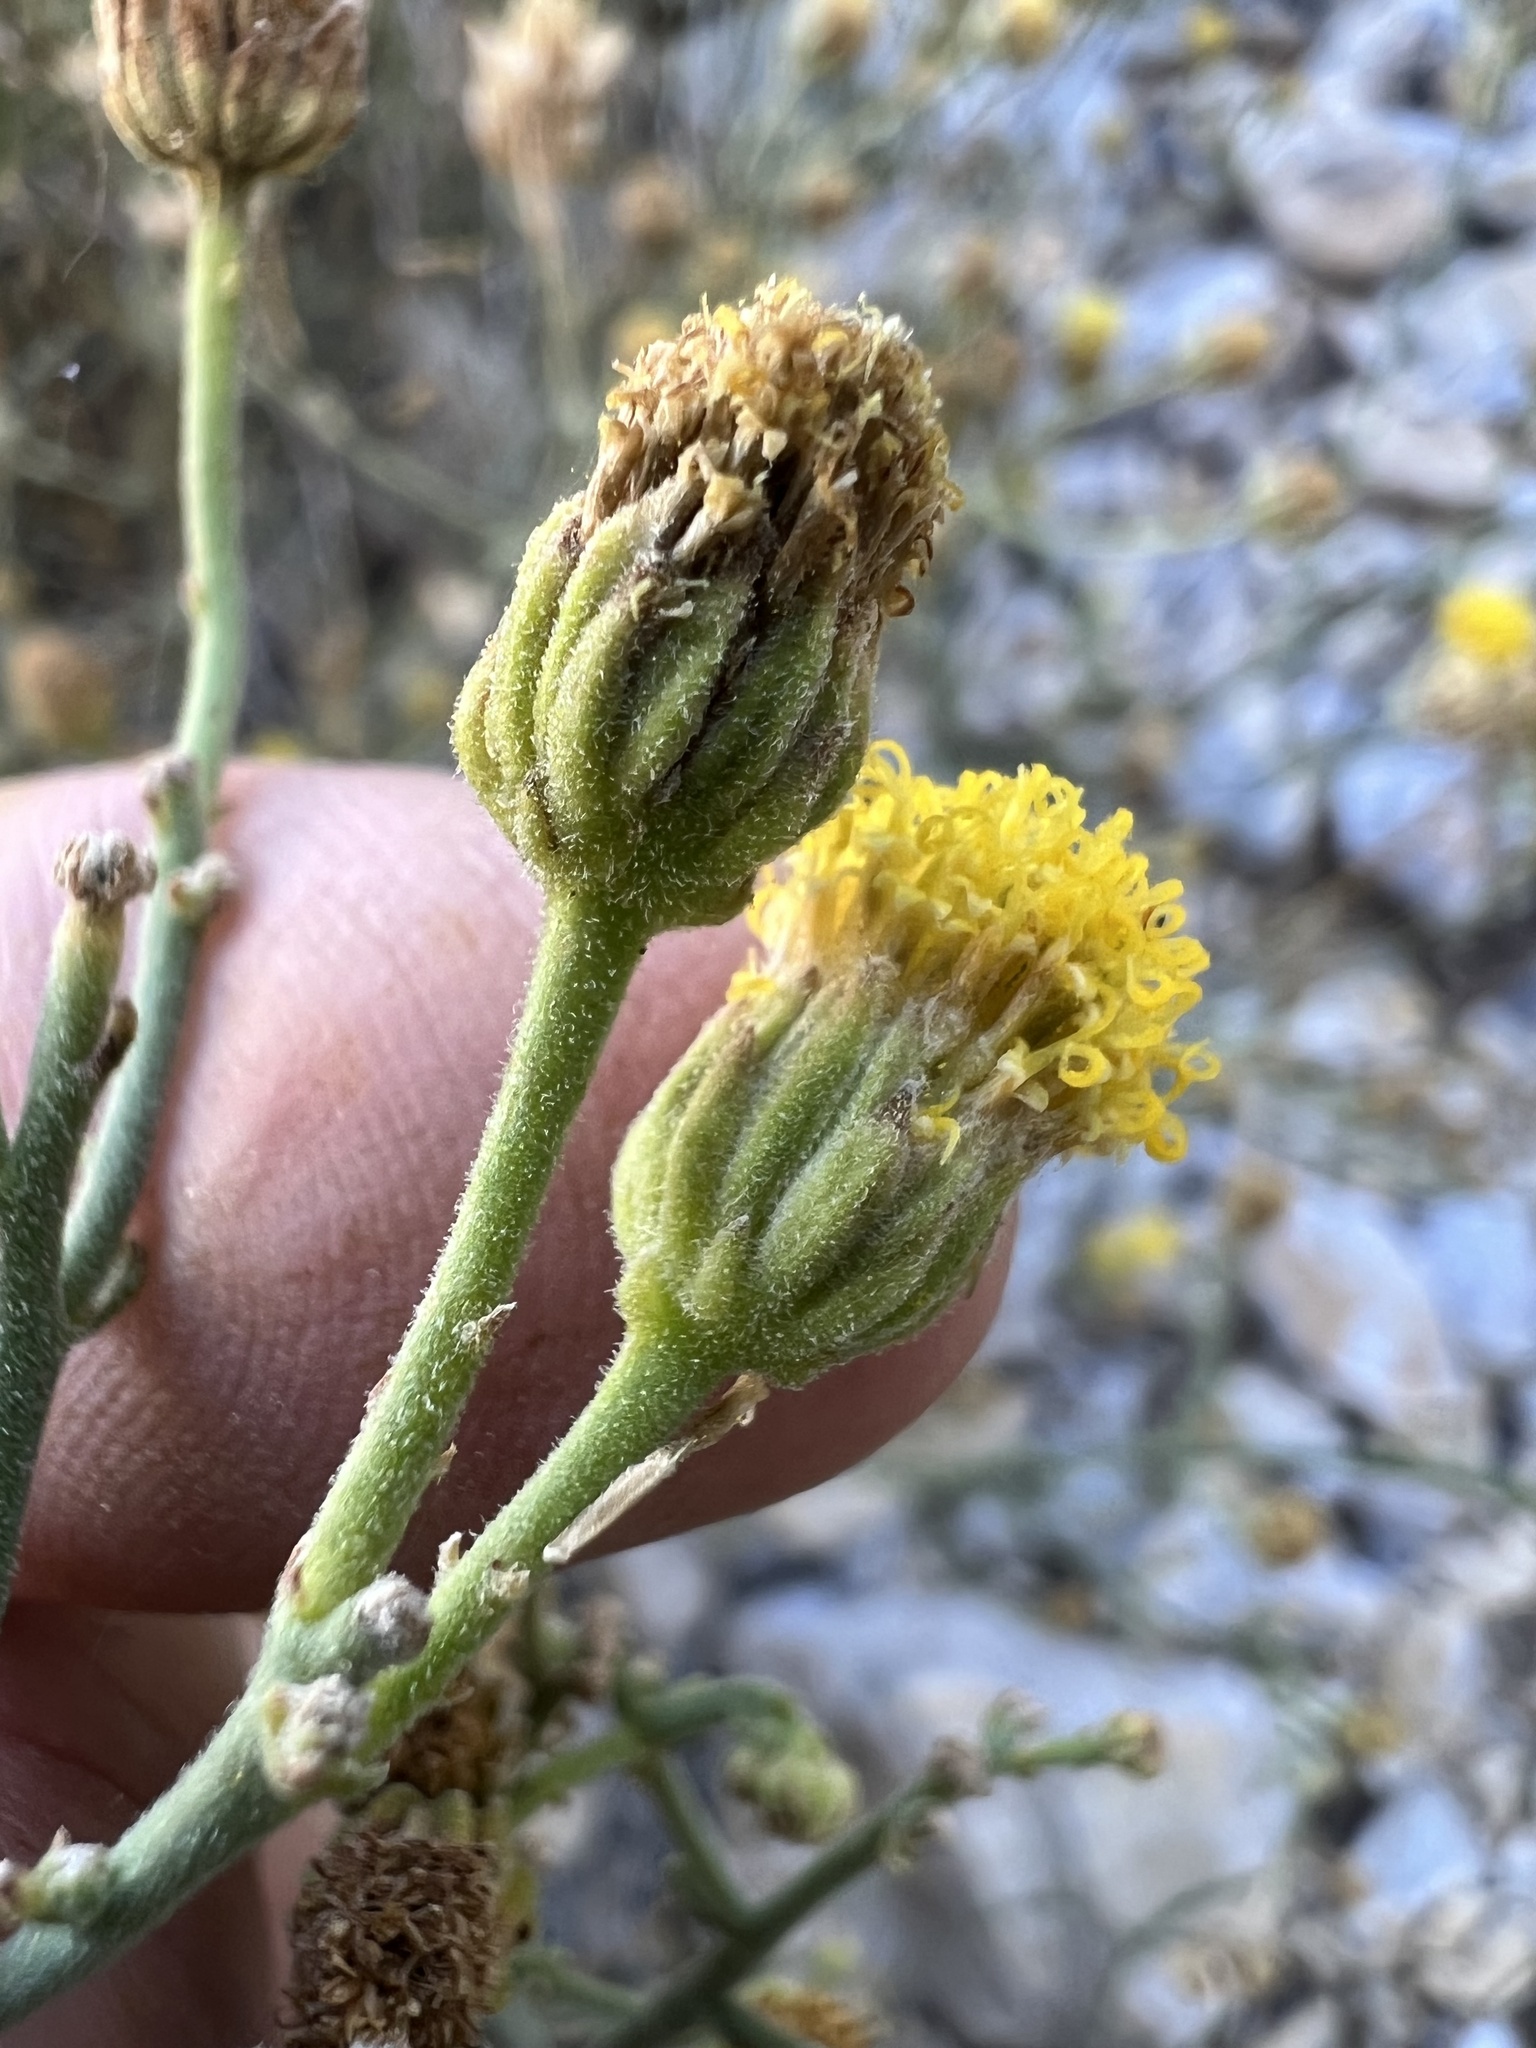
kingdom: Plantae
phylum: Tracheophyta
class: Magnoliopsida
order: Asterales
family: Asteraceae
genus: Laphamia
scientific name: Laphamia megalocephala
